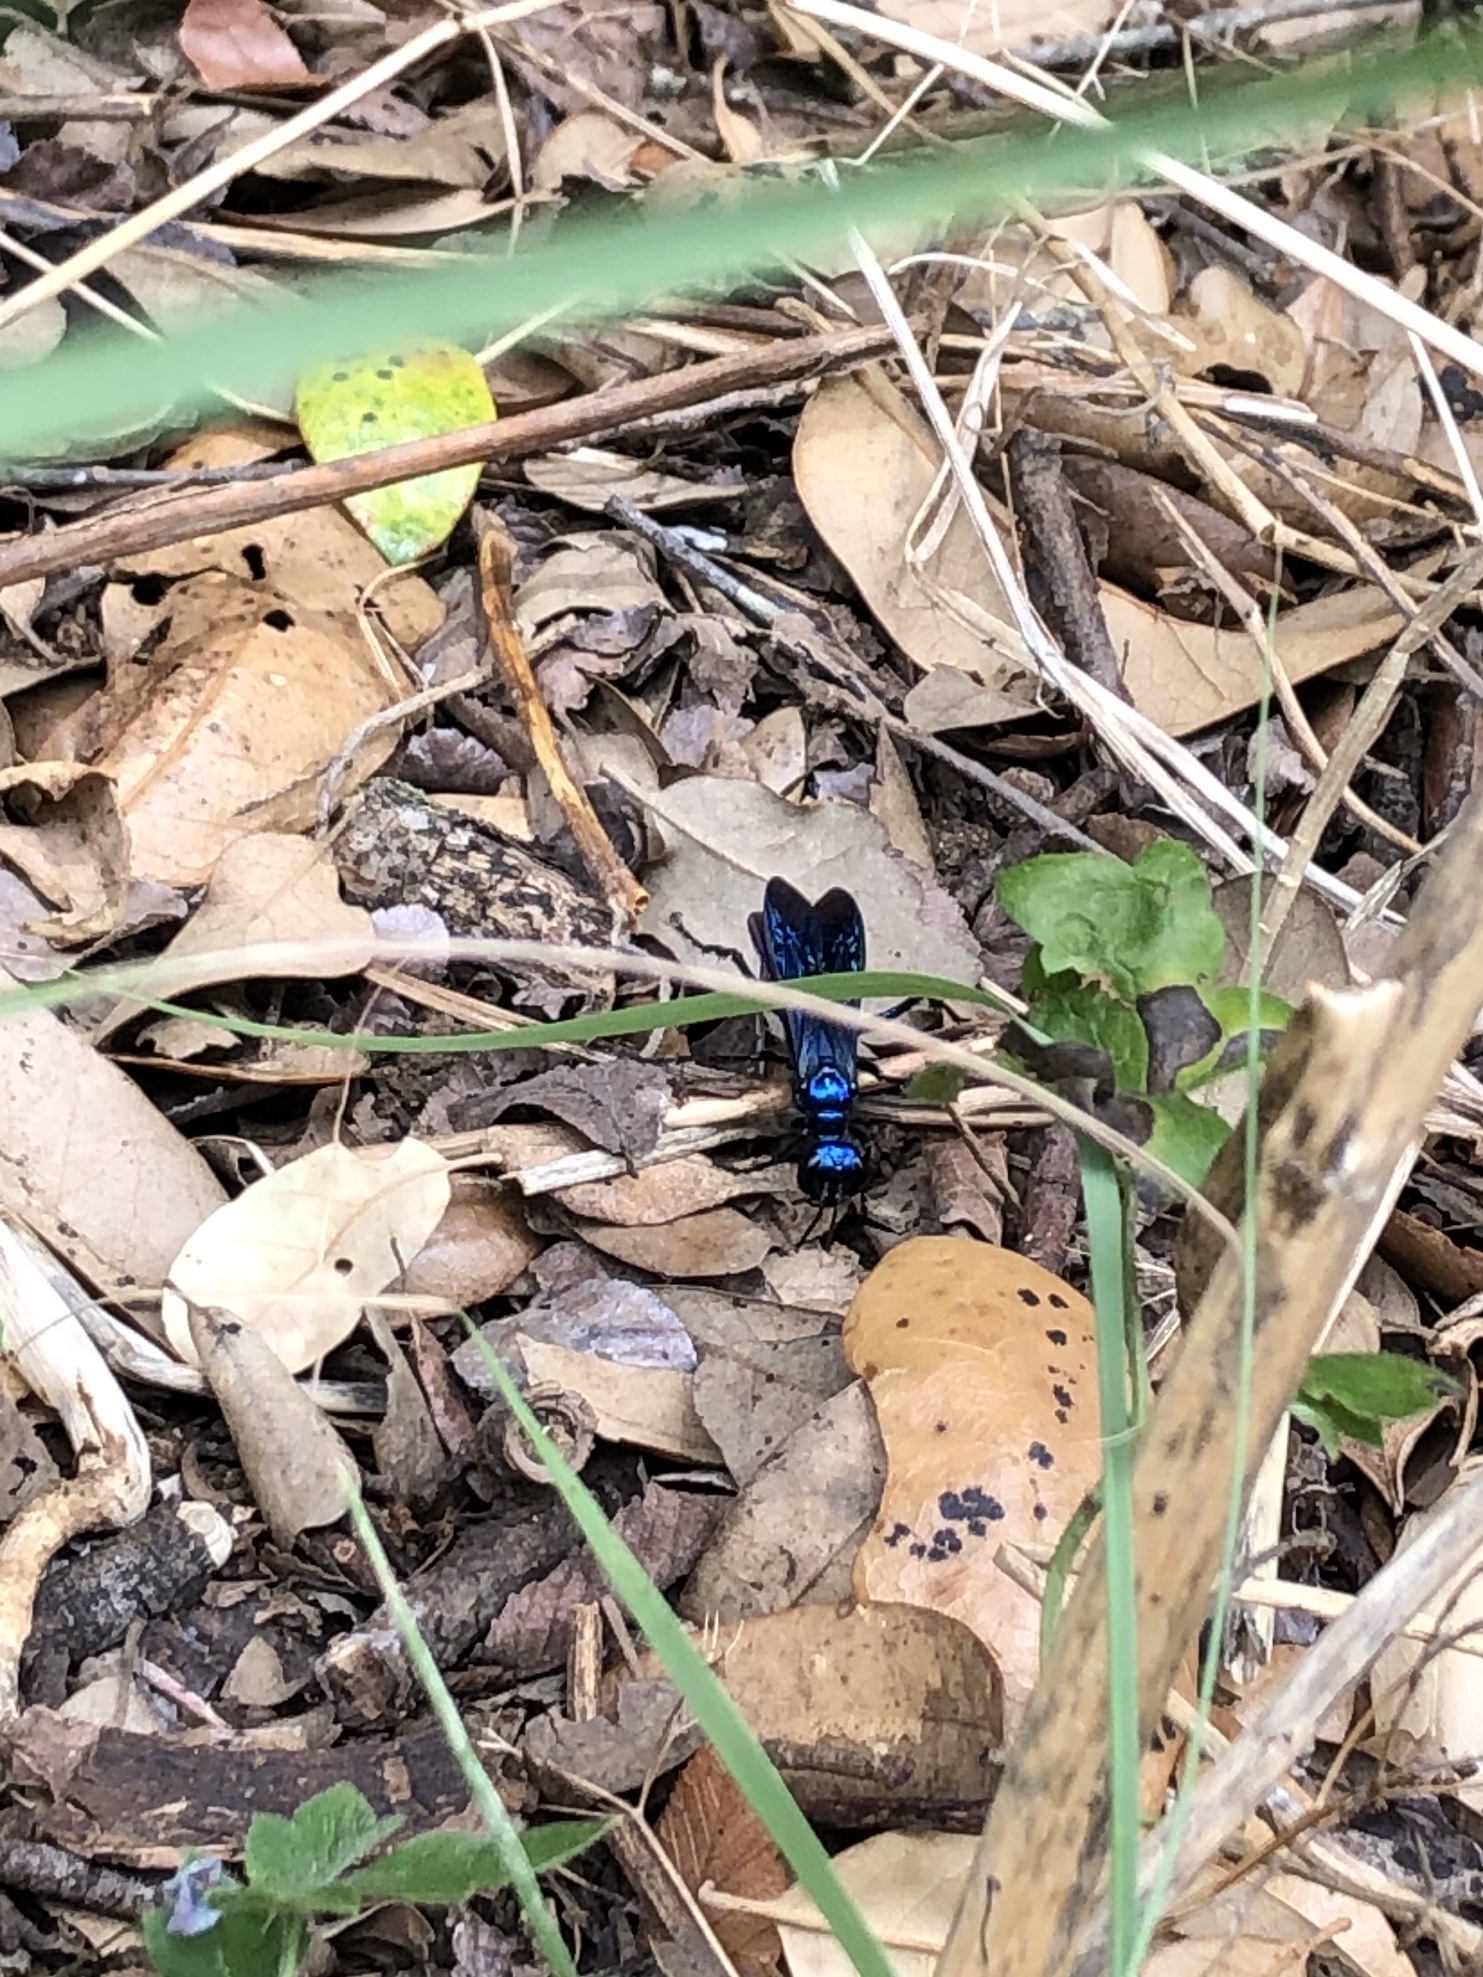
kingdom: Animalia
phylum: Arthropoda
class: Insecta
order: Hymenoptera
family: Sphecidae
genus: Chlorion
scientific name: Chlorion
